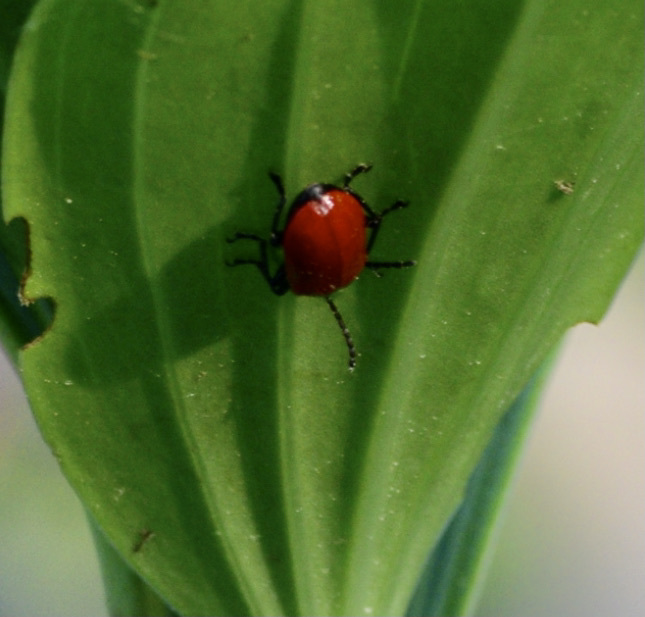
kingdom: Animalia
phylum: Arthropoda
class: Insecta
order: Coleoptera
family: Chrysomelidae
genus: Lilioceris
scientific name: Lilioceris lilii
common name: Lily beetle
